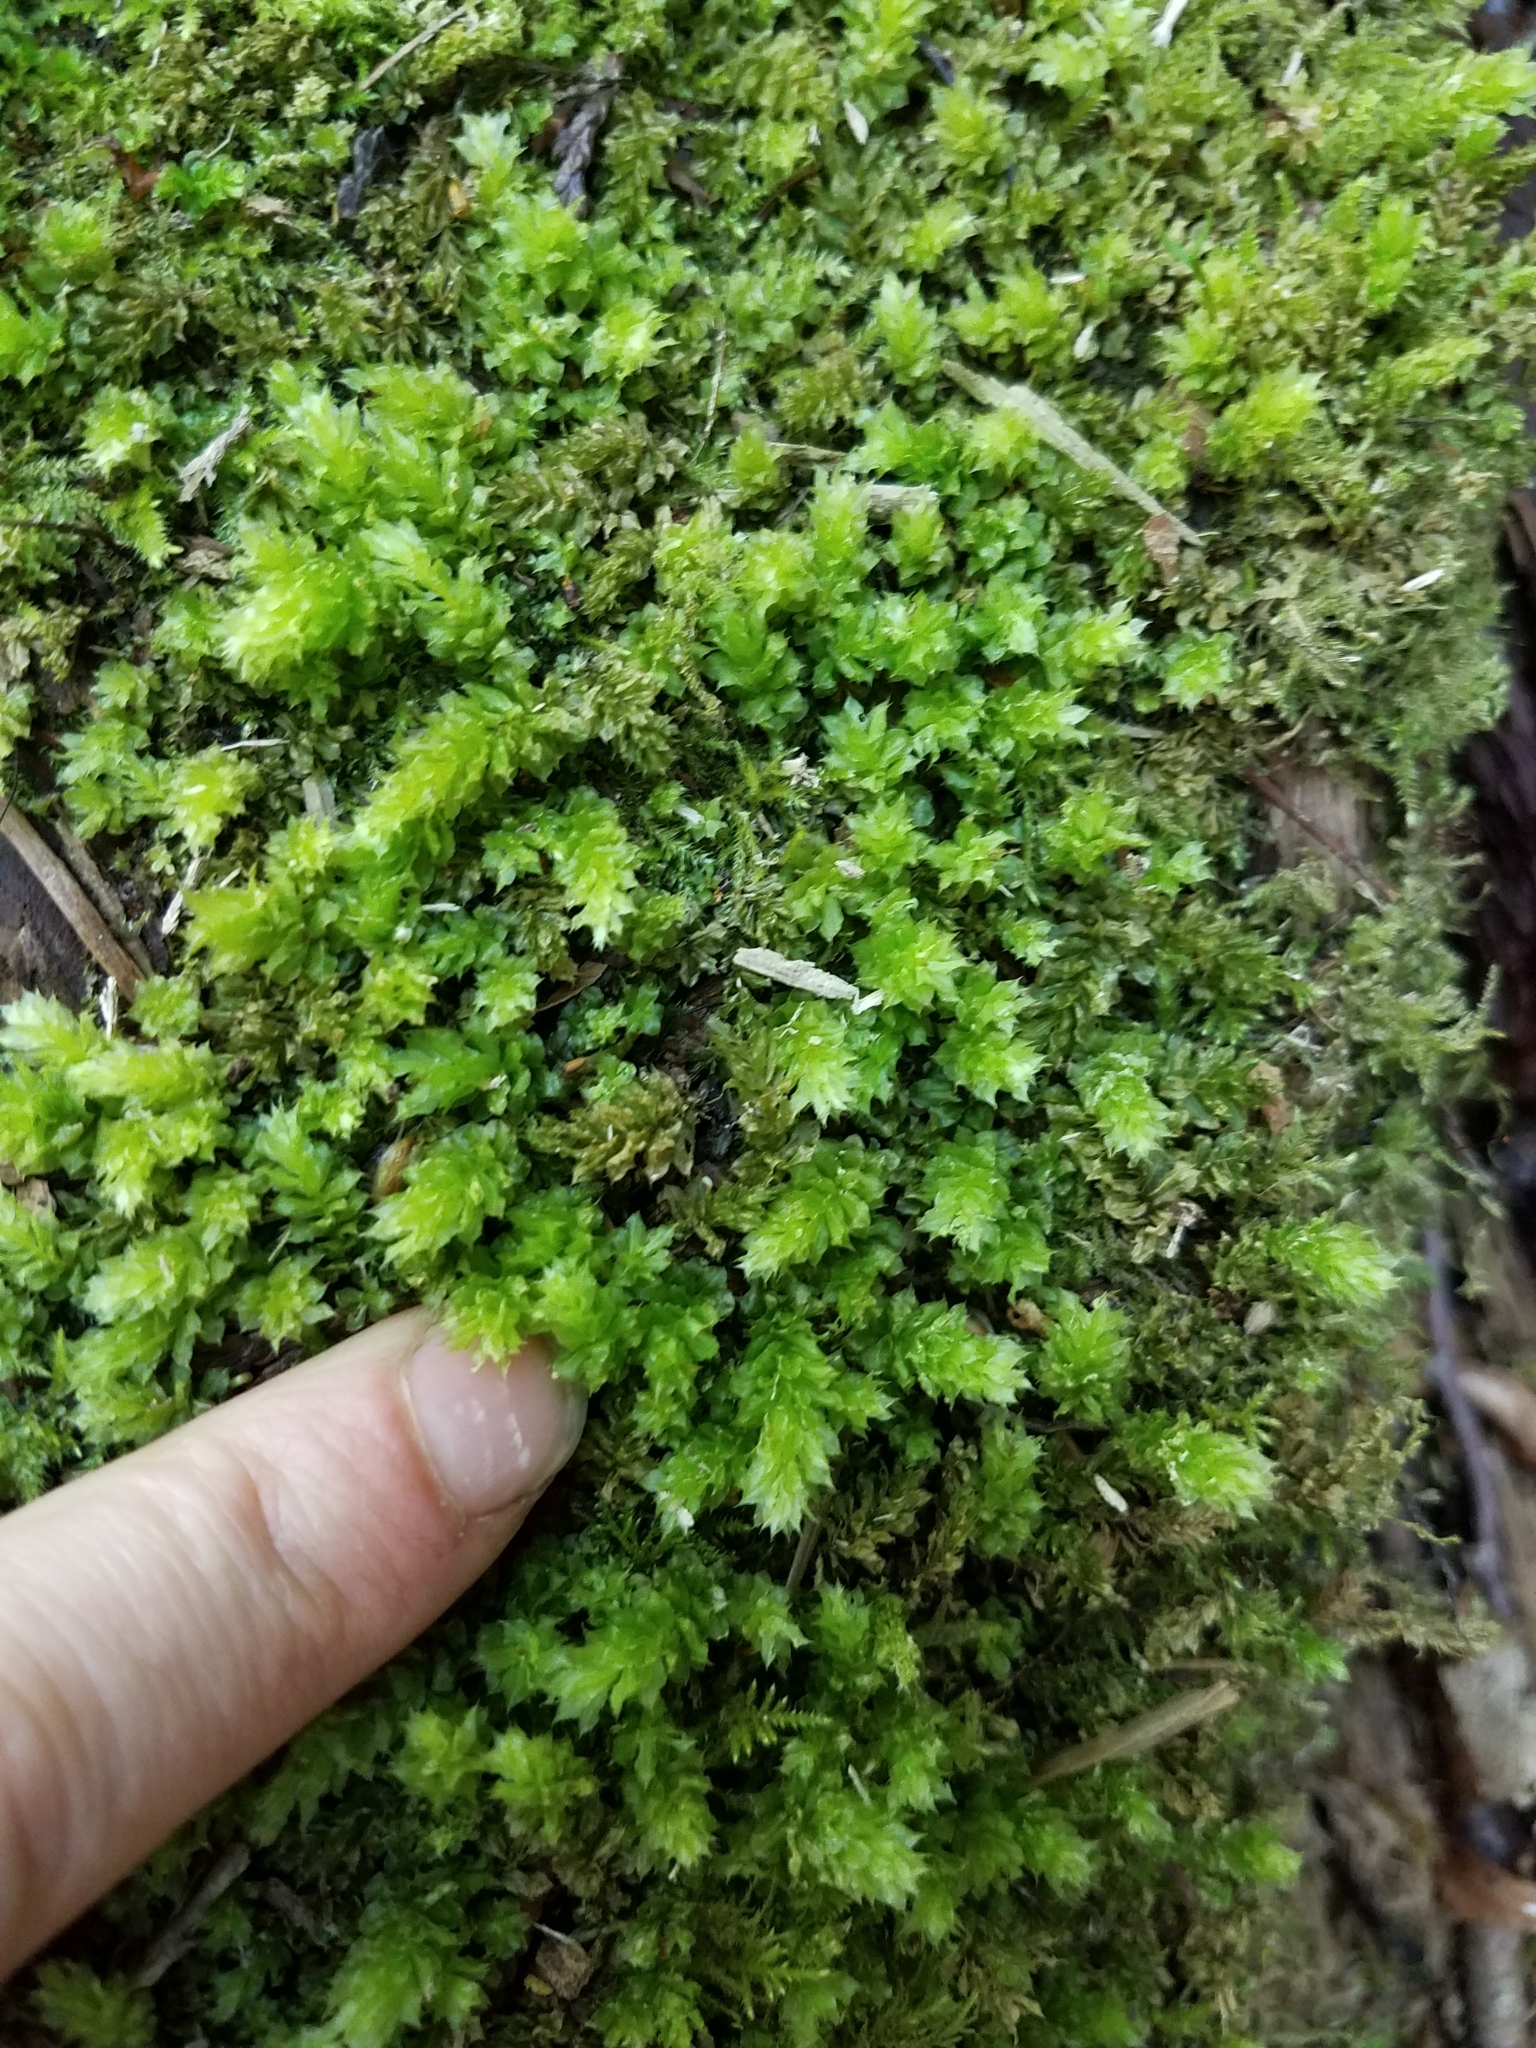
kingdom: Plantae
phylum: Bryophyta
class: Bryopsida
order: Bryales
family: Mniaceae
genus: Plagiomnium
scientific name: Plagiomnium venustum
